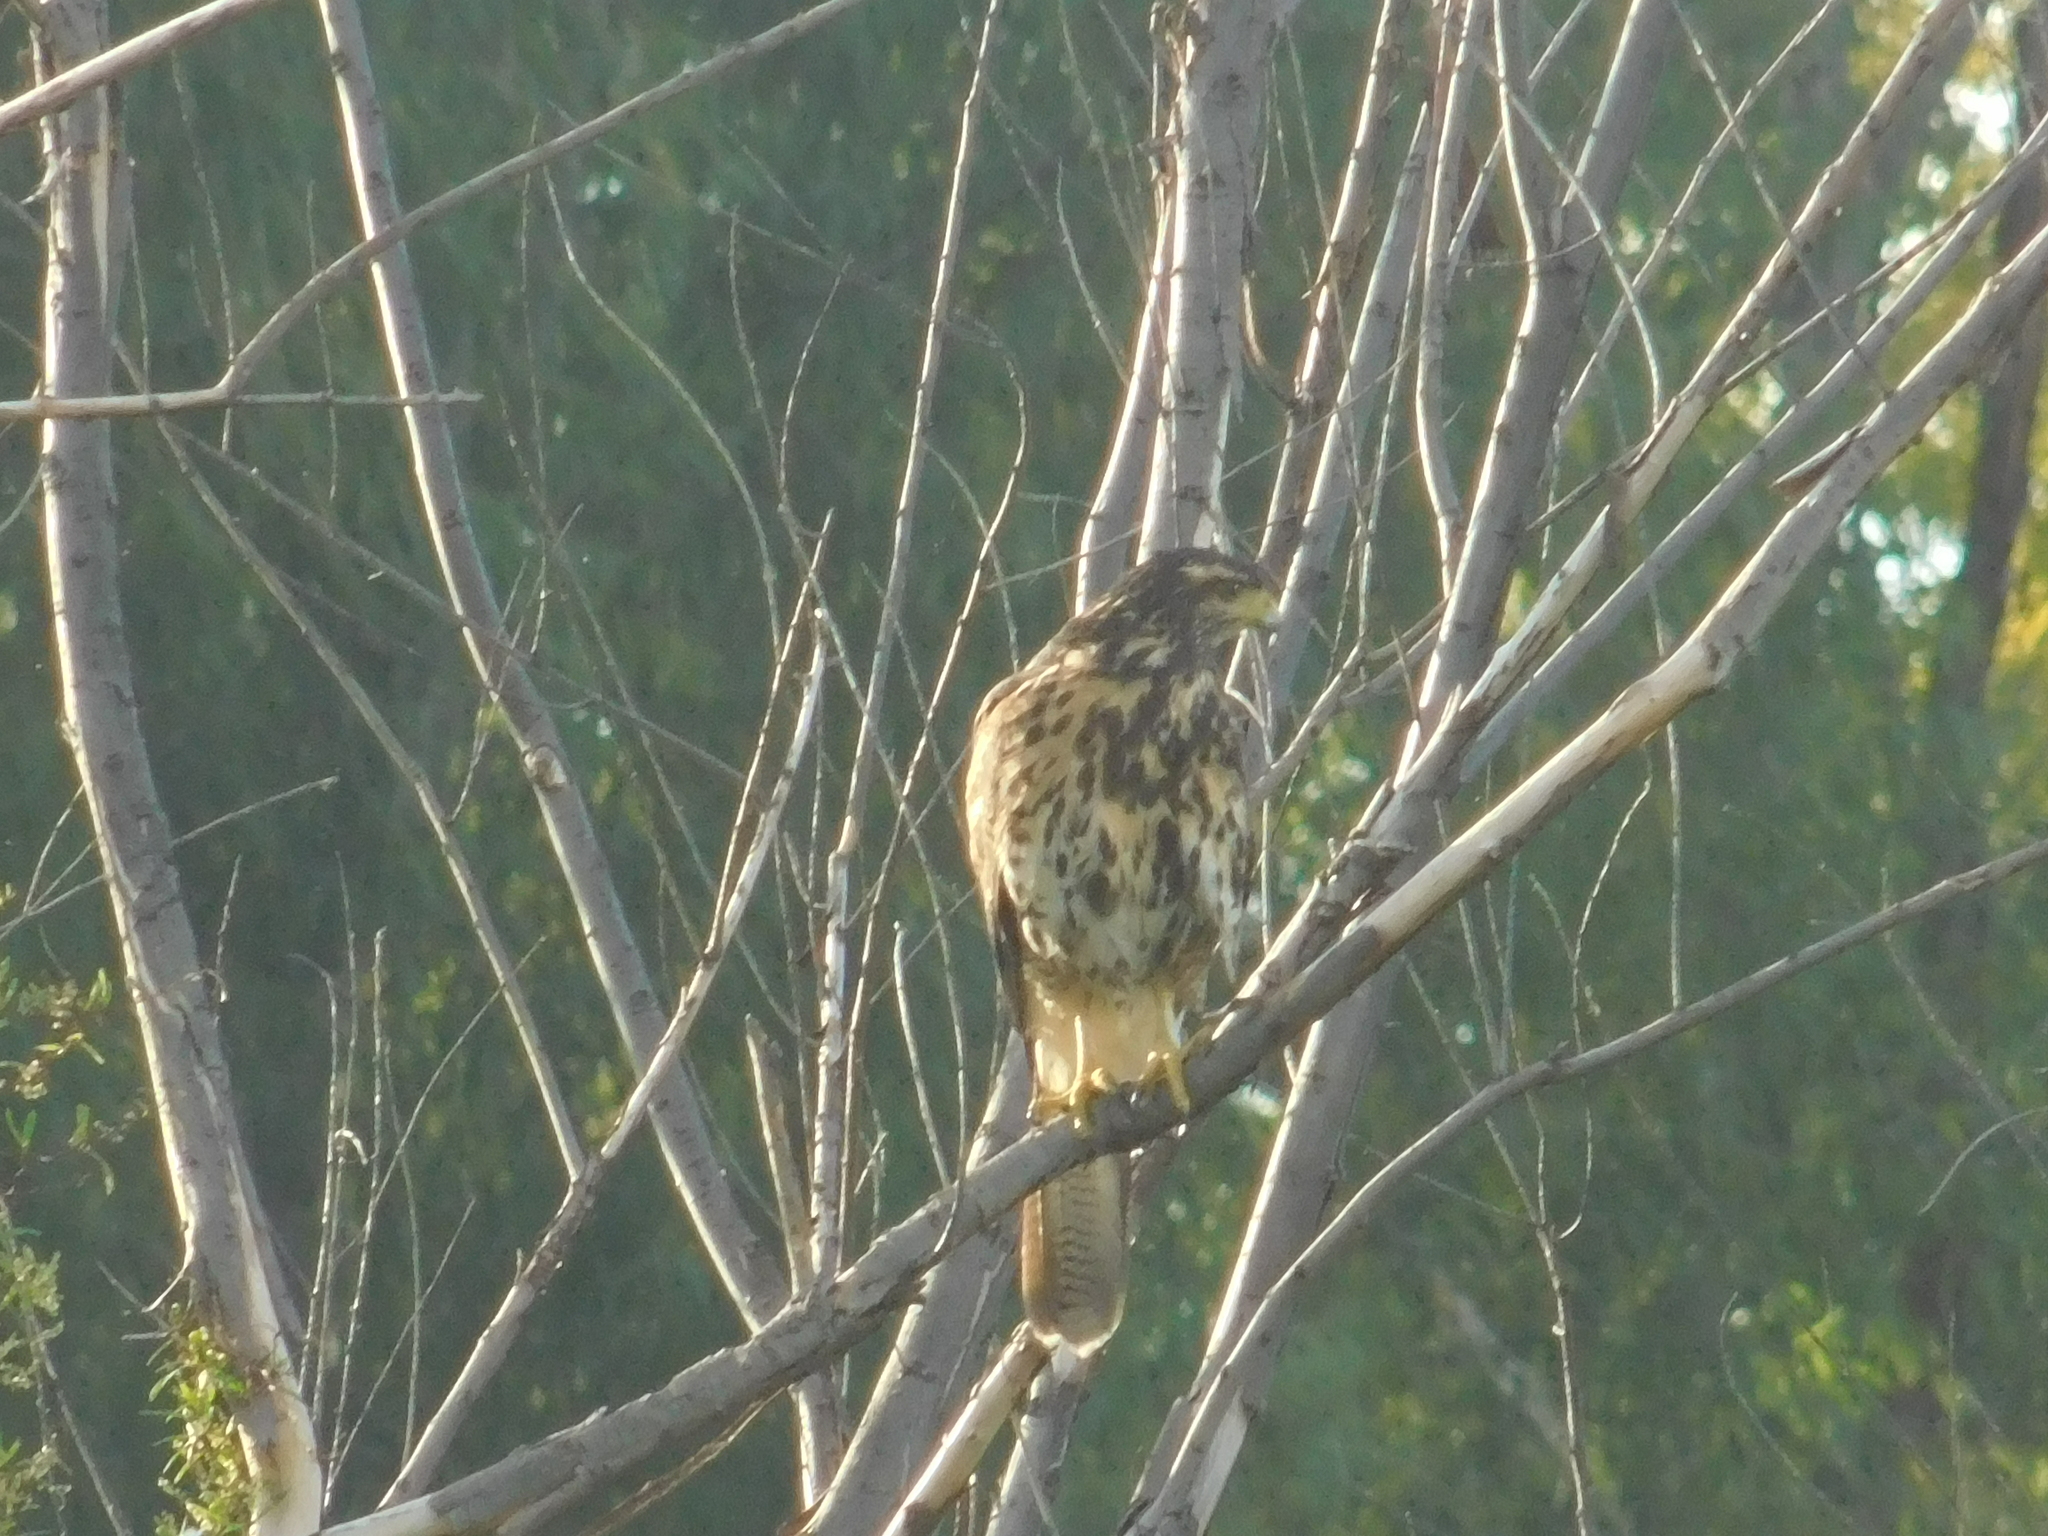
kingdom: Animalia
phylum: Chordata
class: Aves
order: Accipitriformes
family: Accipitridae
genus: Parabuteo
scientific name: Parabuteo unicinctus
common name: Harris's hawk
